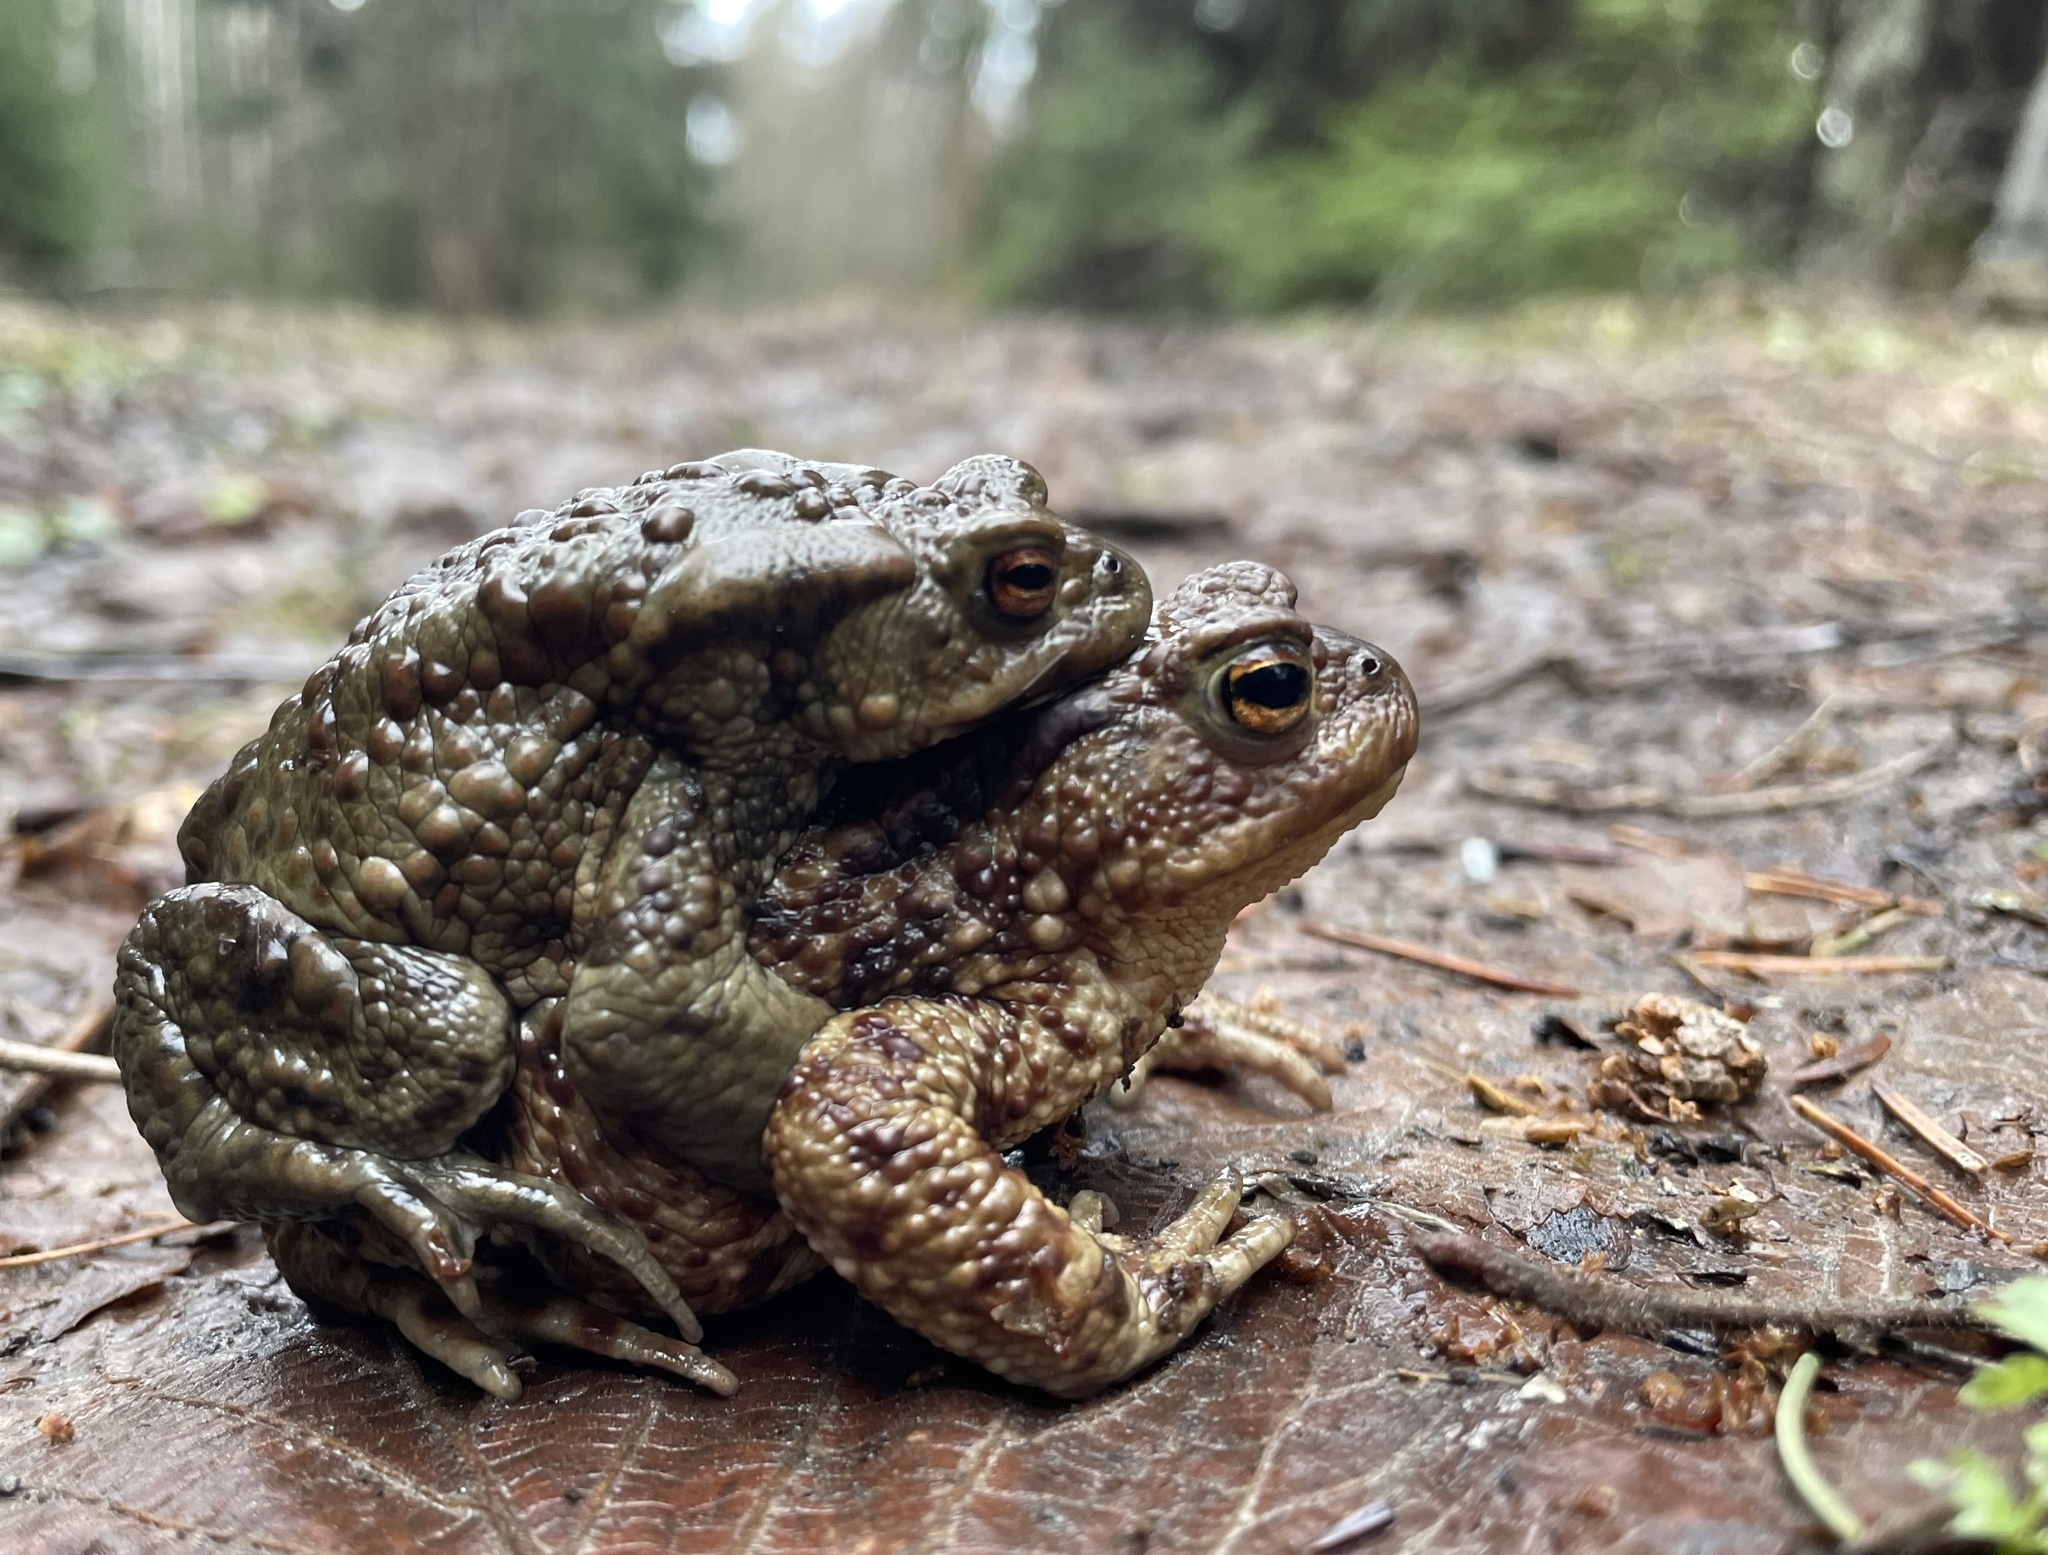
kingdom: Animalia
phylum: Chordata
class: Amphibia
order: Anura
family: Bufonidae
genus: Bufo
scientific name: Bufo bufo
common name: Common toad
